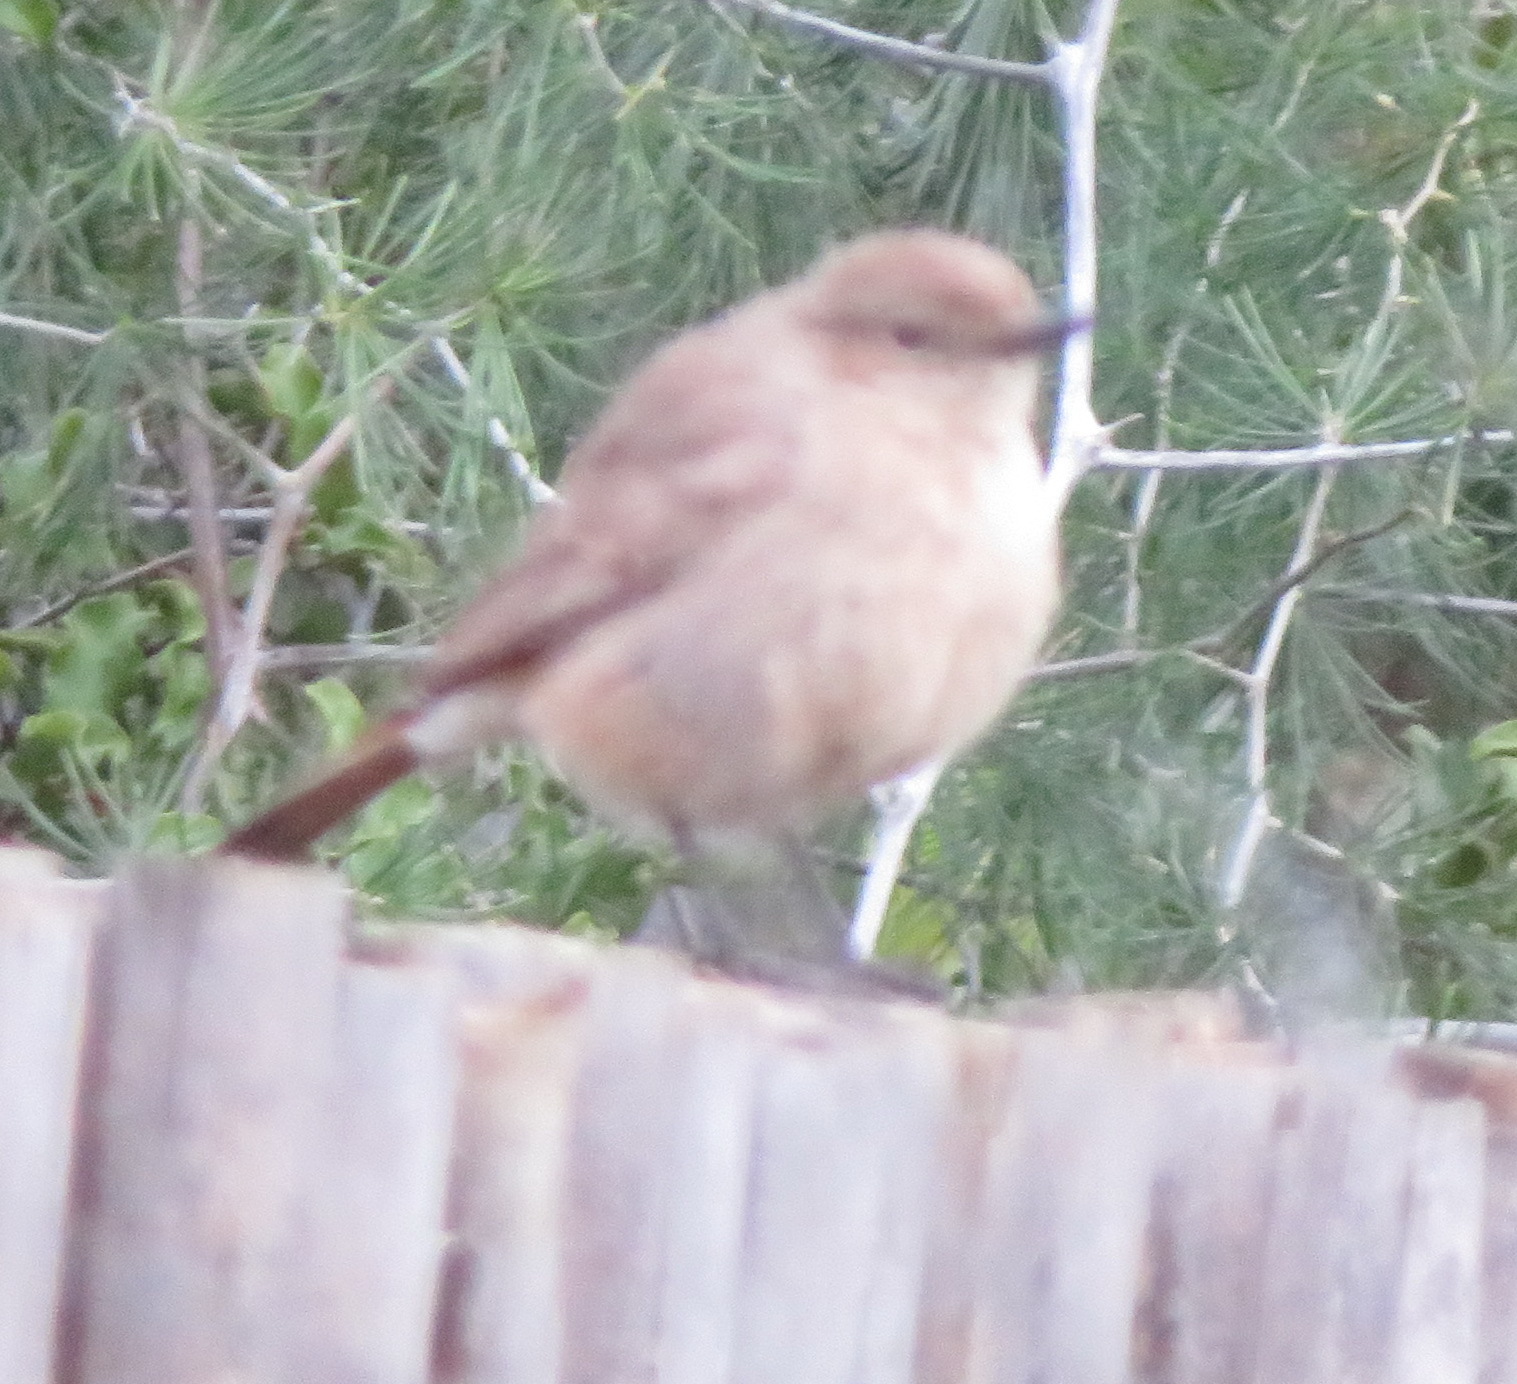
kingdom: Animalia
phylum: Chordata
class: Aves
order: Passeriformes
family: Muscicapidae
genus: Oenanthe
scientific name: Oenanthe familiaris
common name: Familiar chat
